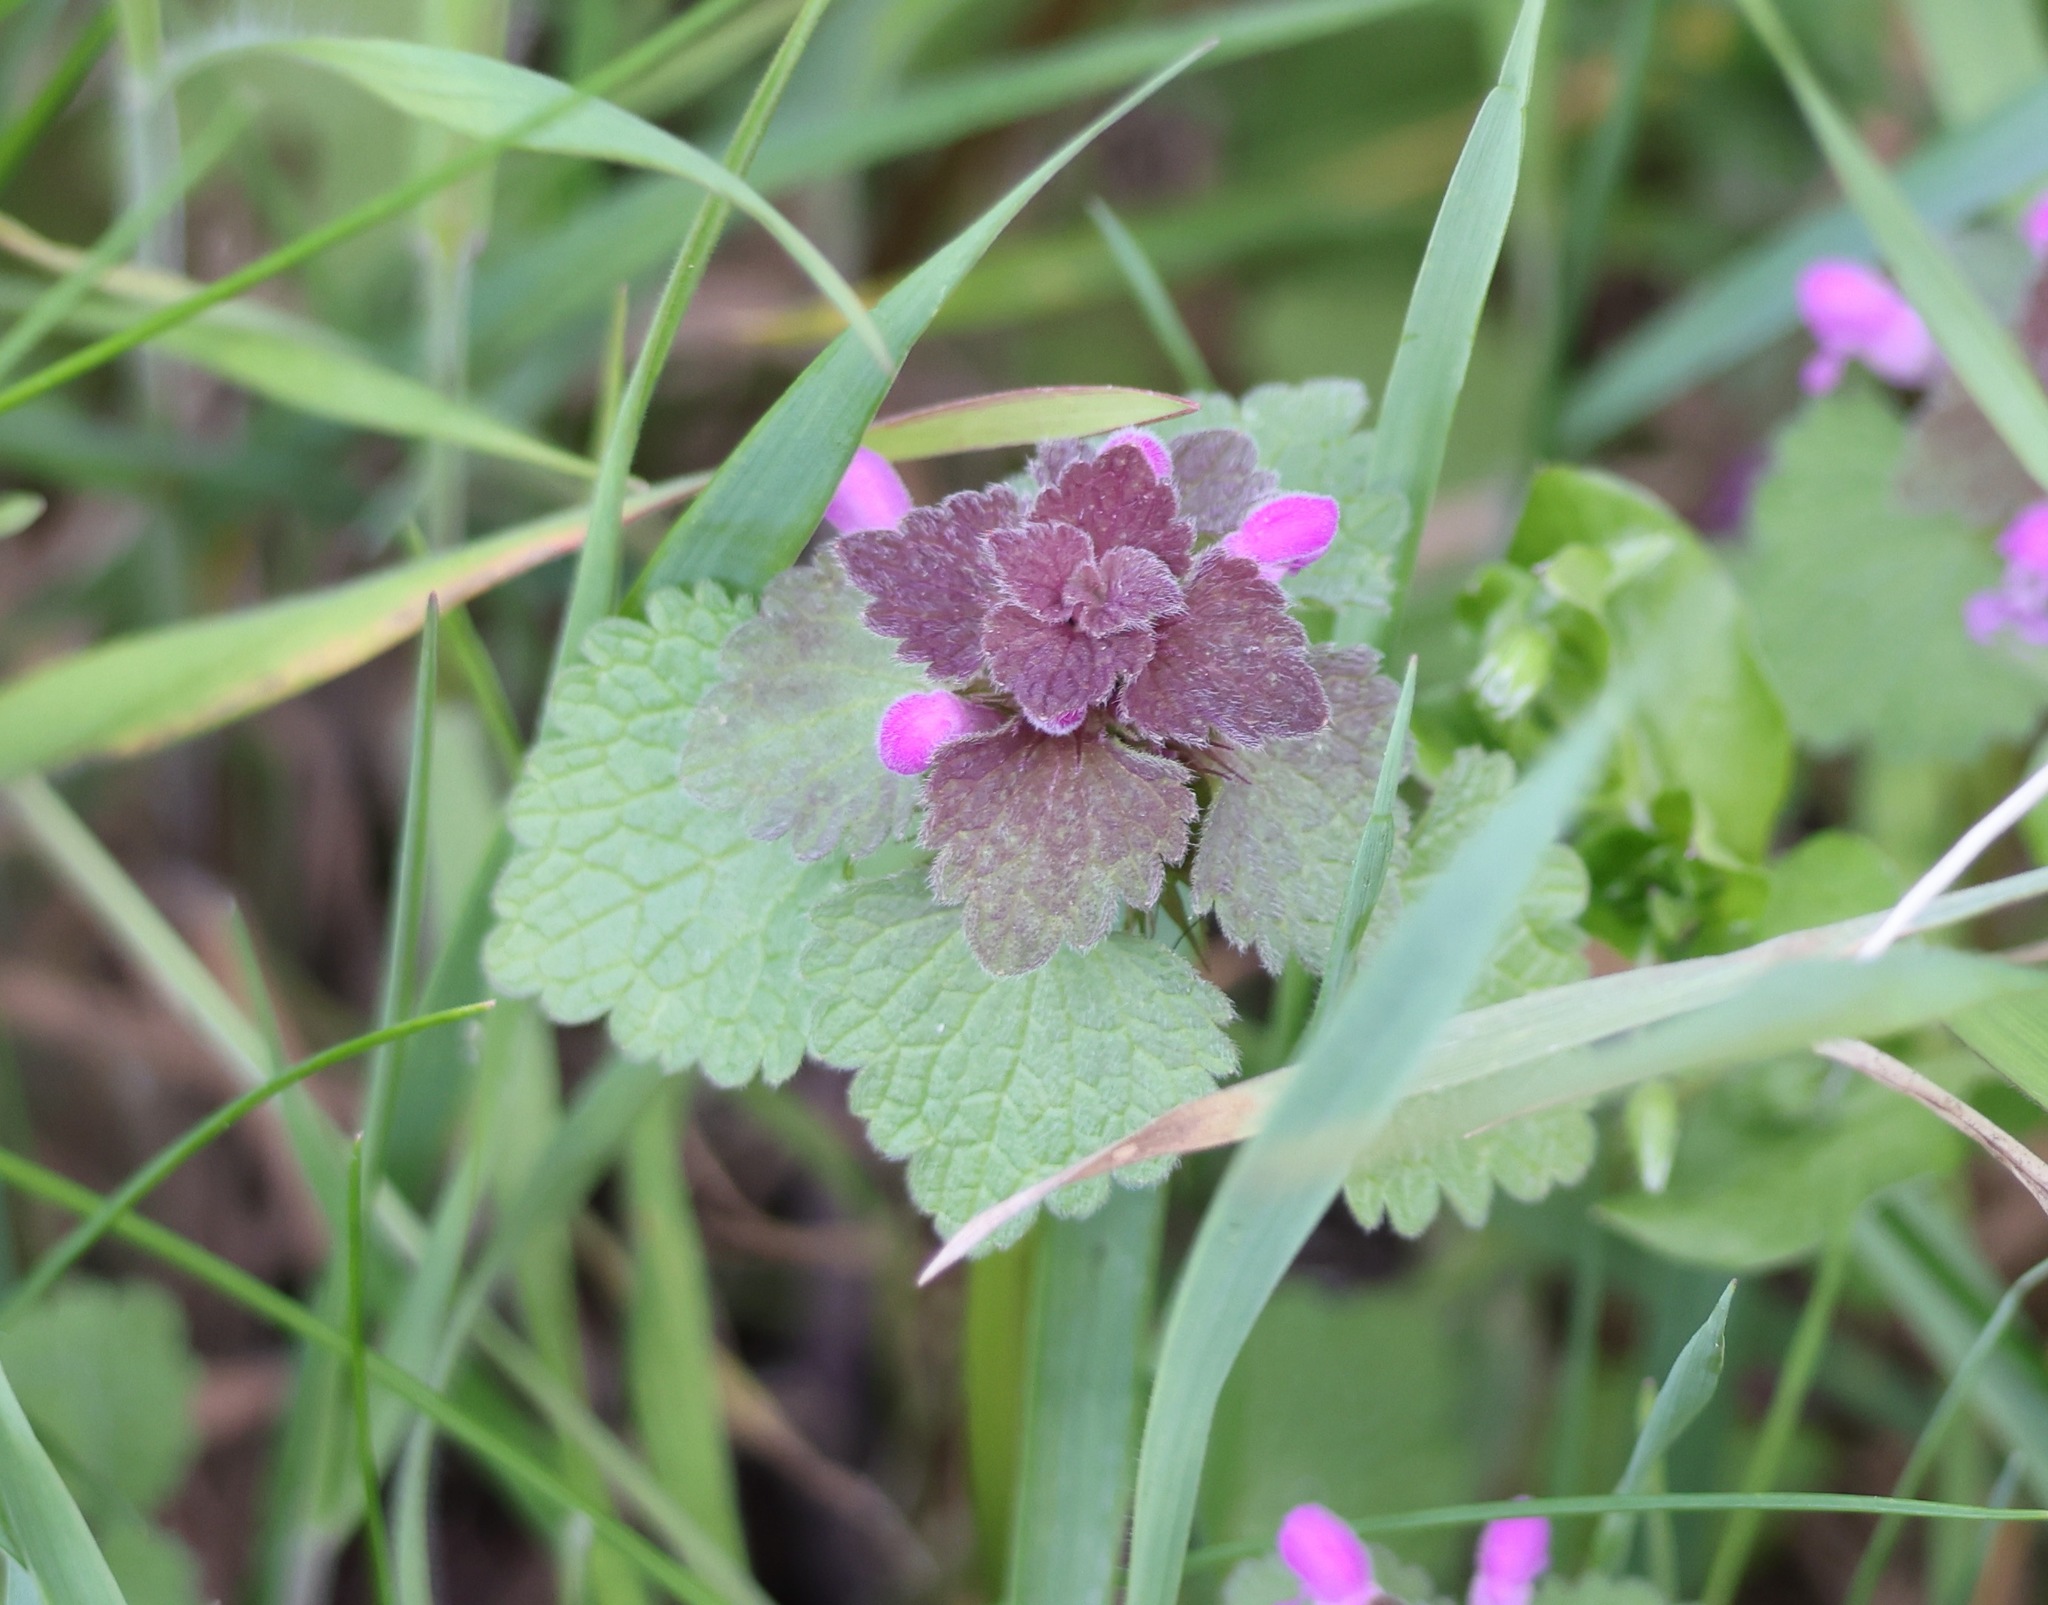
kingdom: Plantae
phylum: Tracheophyta
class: Magnoliopsida
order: Lamiales
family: Lamiaceae
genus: Lamium
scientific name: Lamium purpureum
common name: Red dead-nettle
